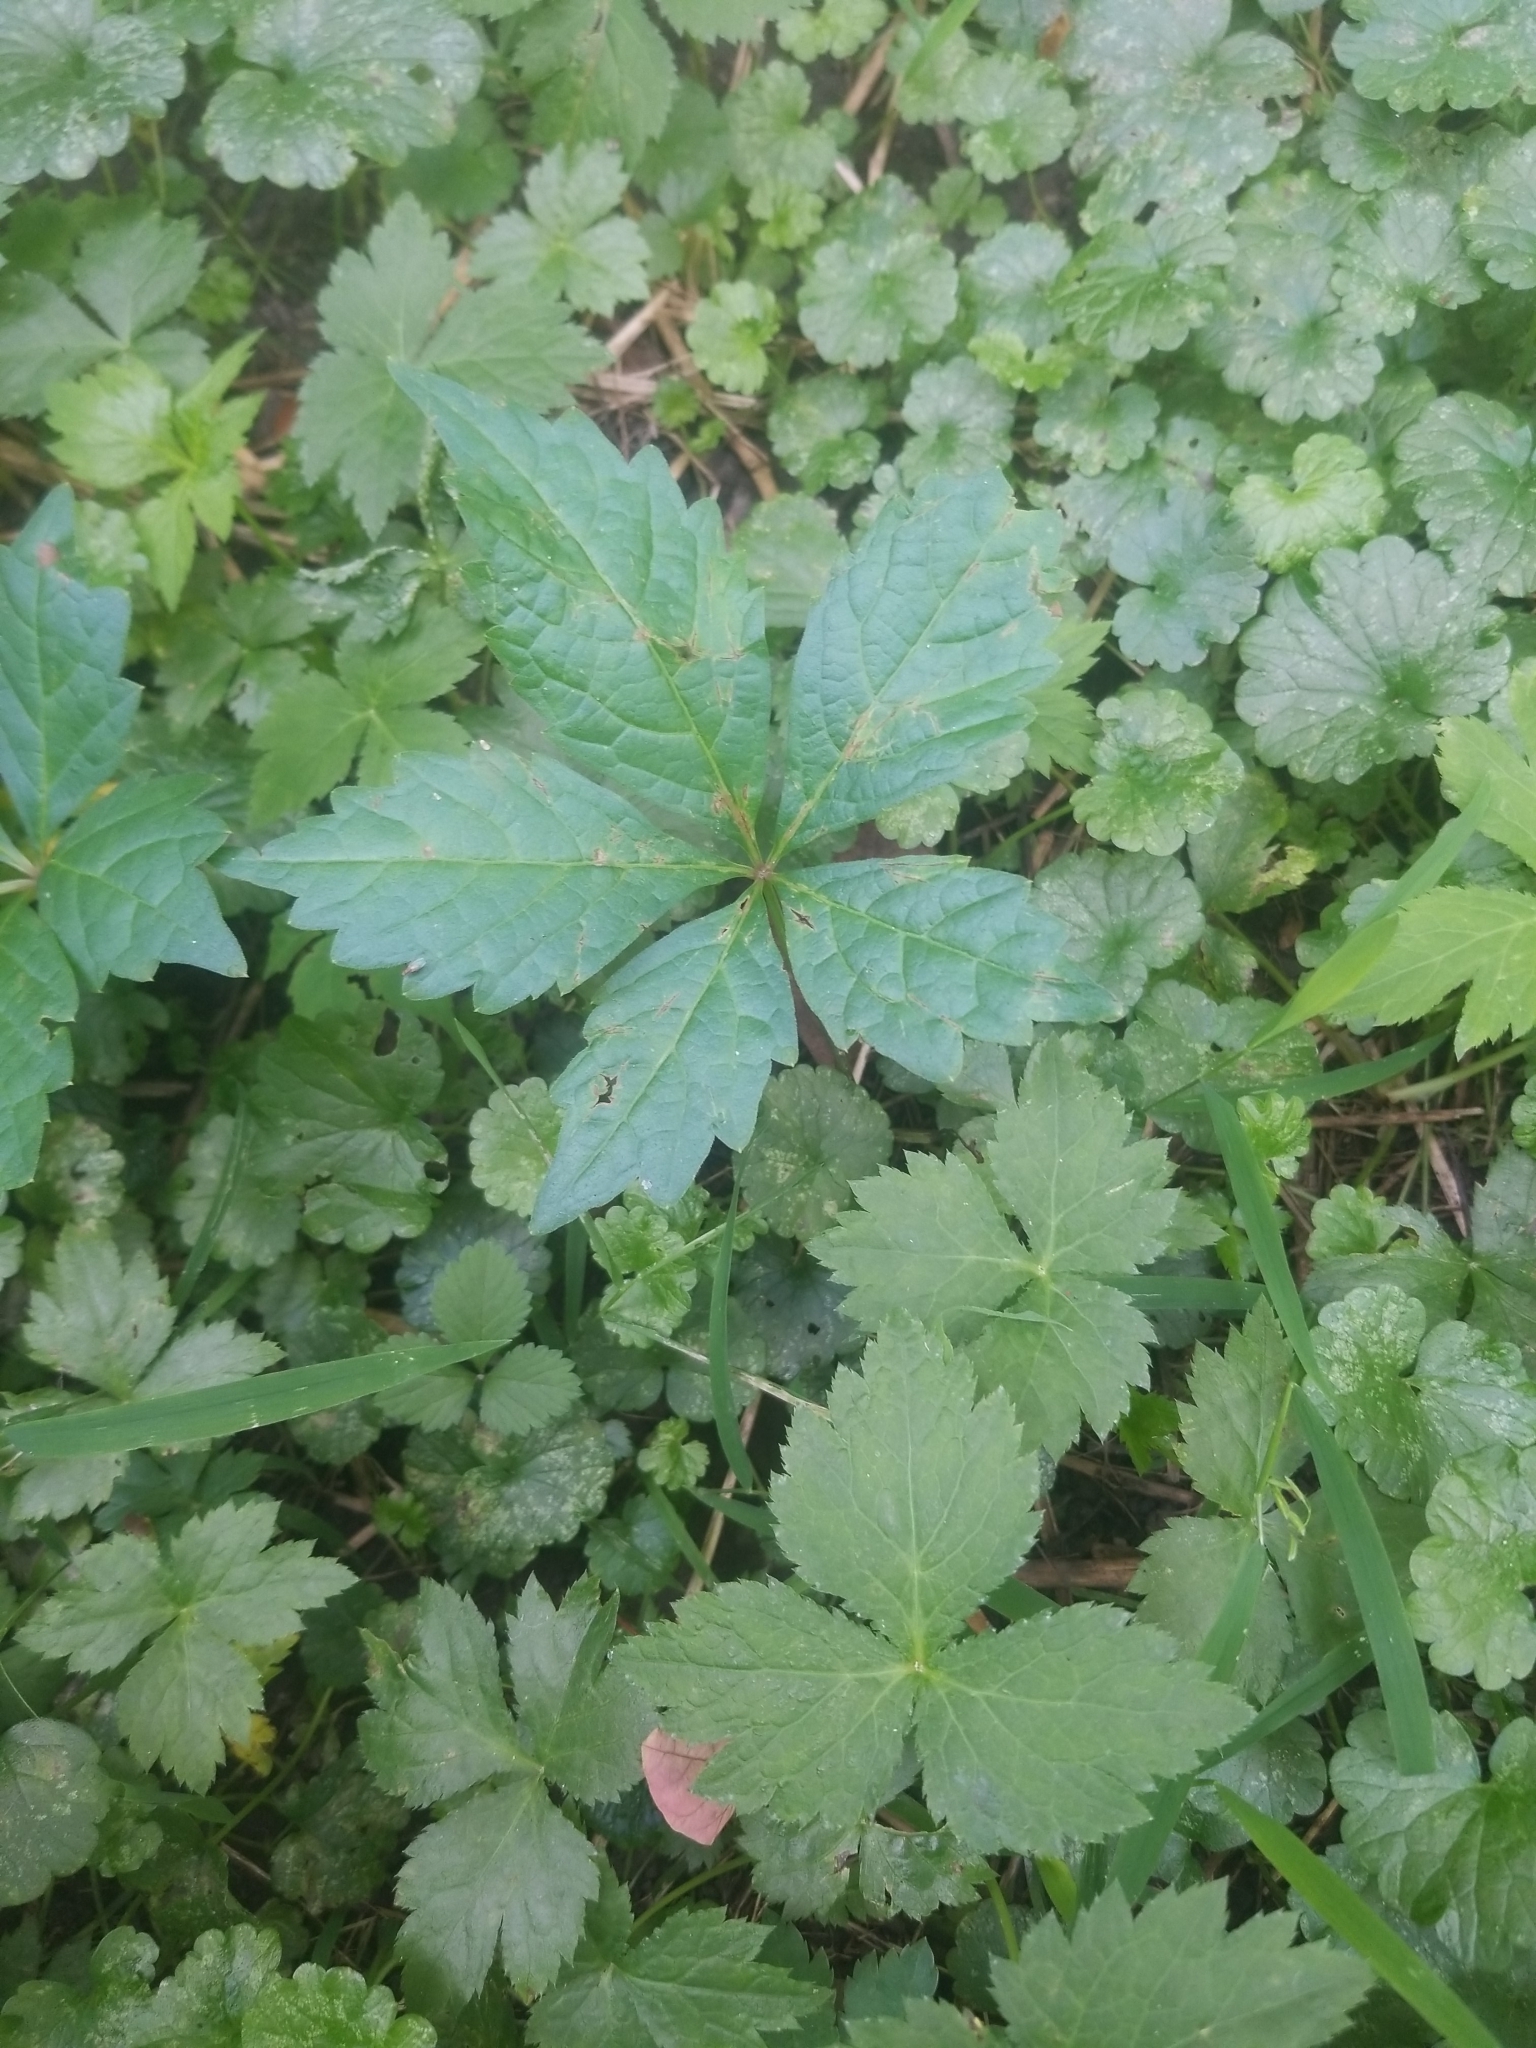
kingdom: Plantae
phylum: Tracheophyta
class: Magnoliopsida
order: Vitales
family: Vitaceae
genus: Parthenocissus
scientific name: Parthenocissus quinquefolia
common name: Virginia-creeper
